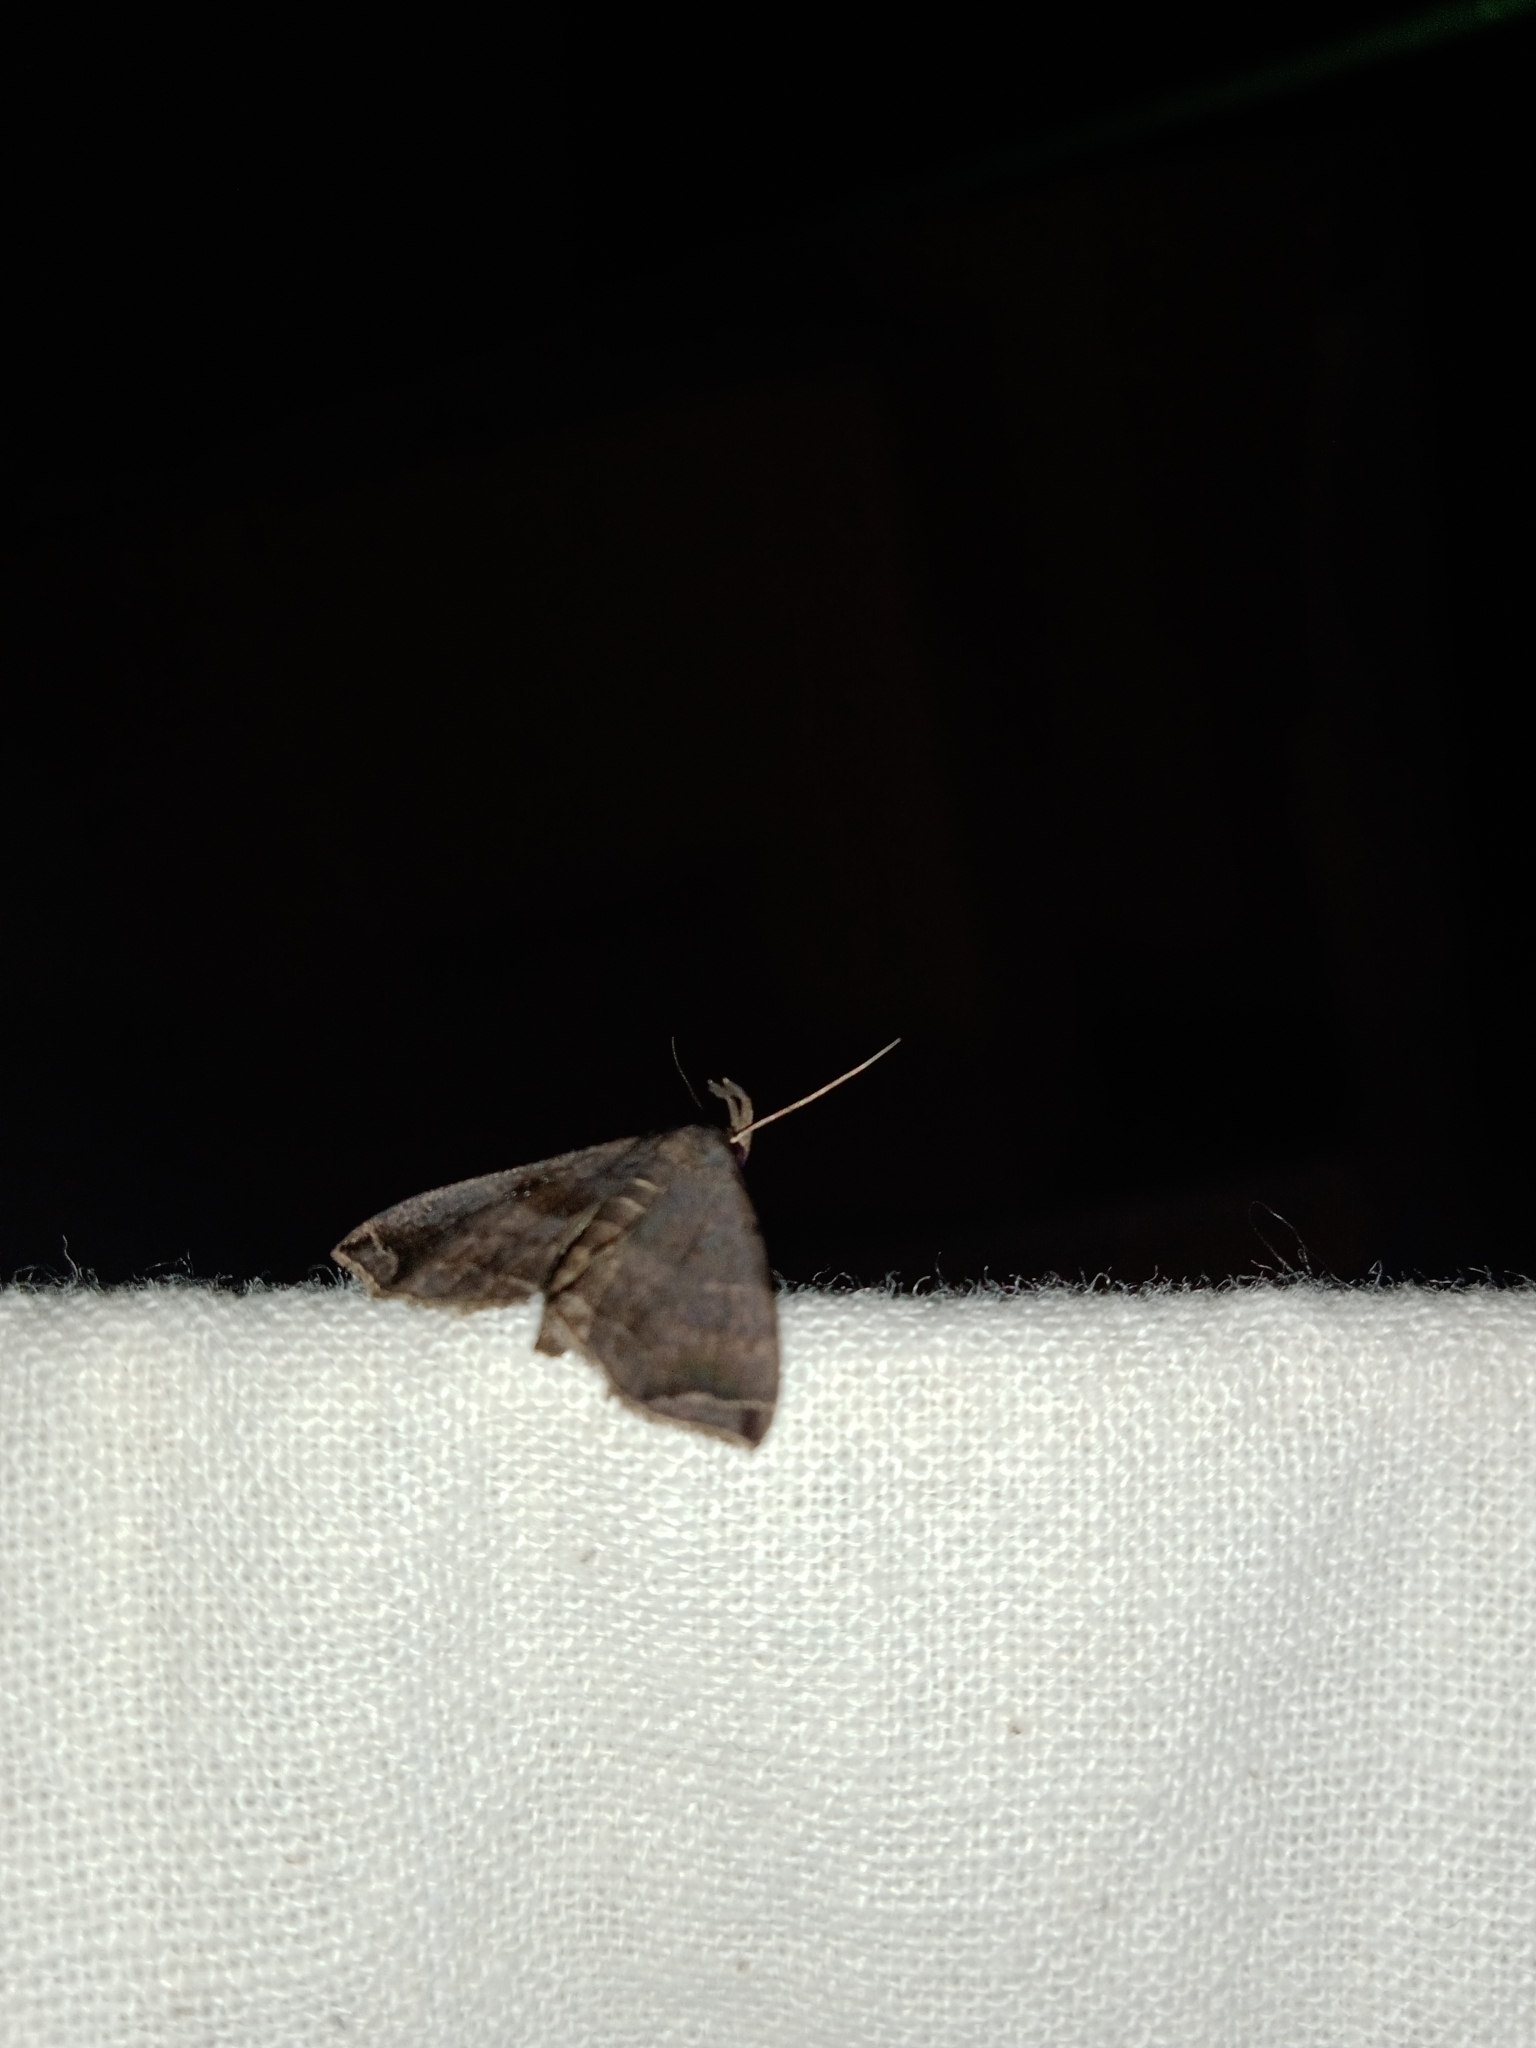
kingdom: Animalia
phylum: Arthropoda
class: Insecta
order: Lepidoptera
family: Erebidae
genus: Polypogon
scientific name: Polypogon biasalis
